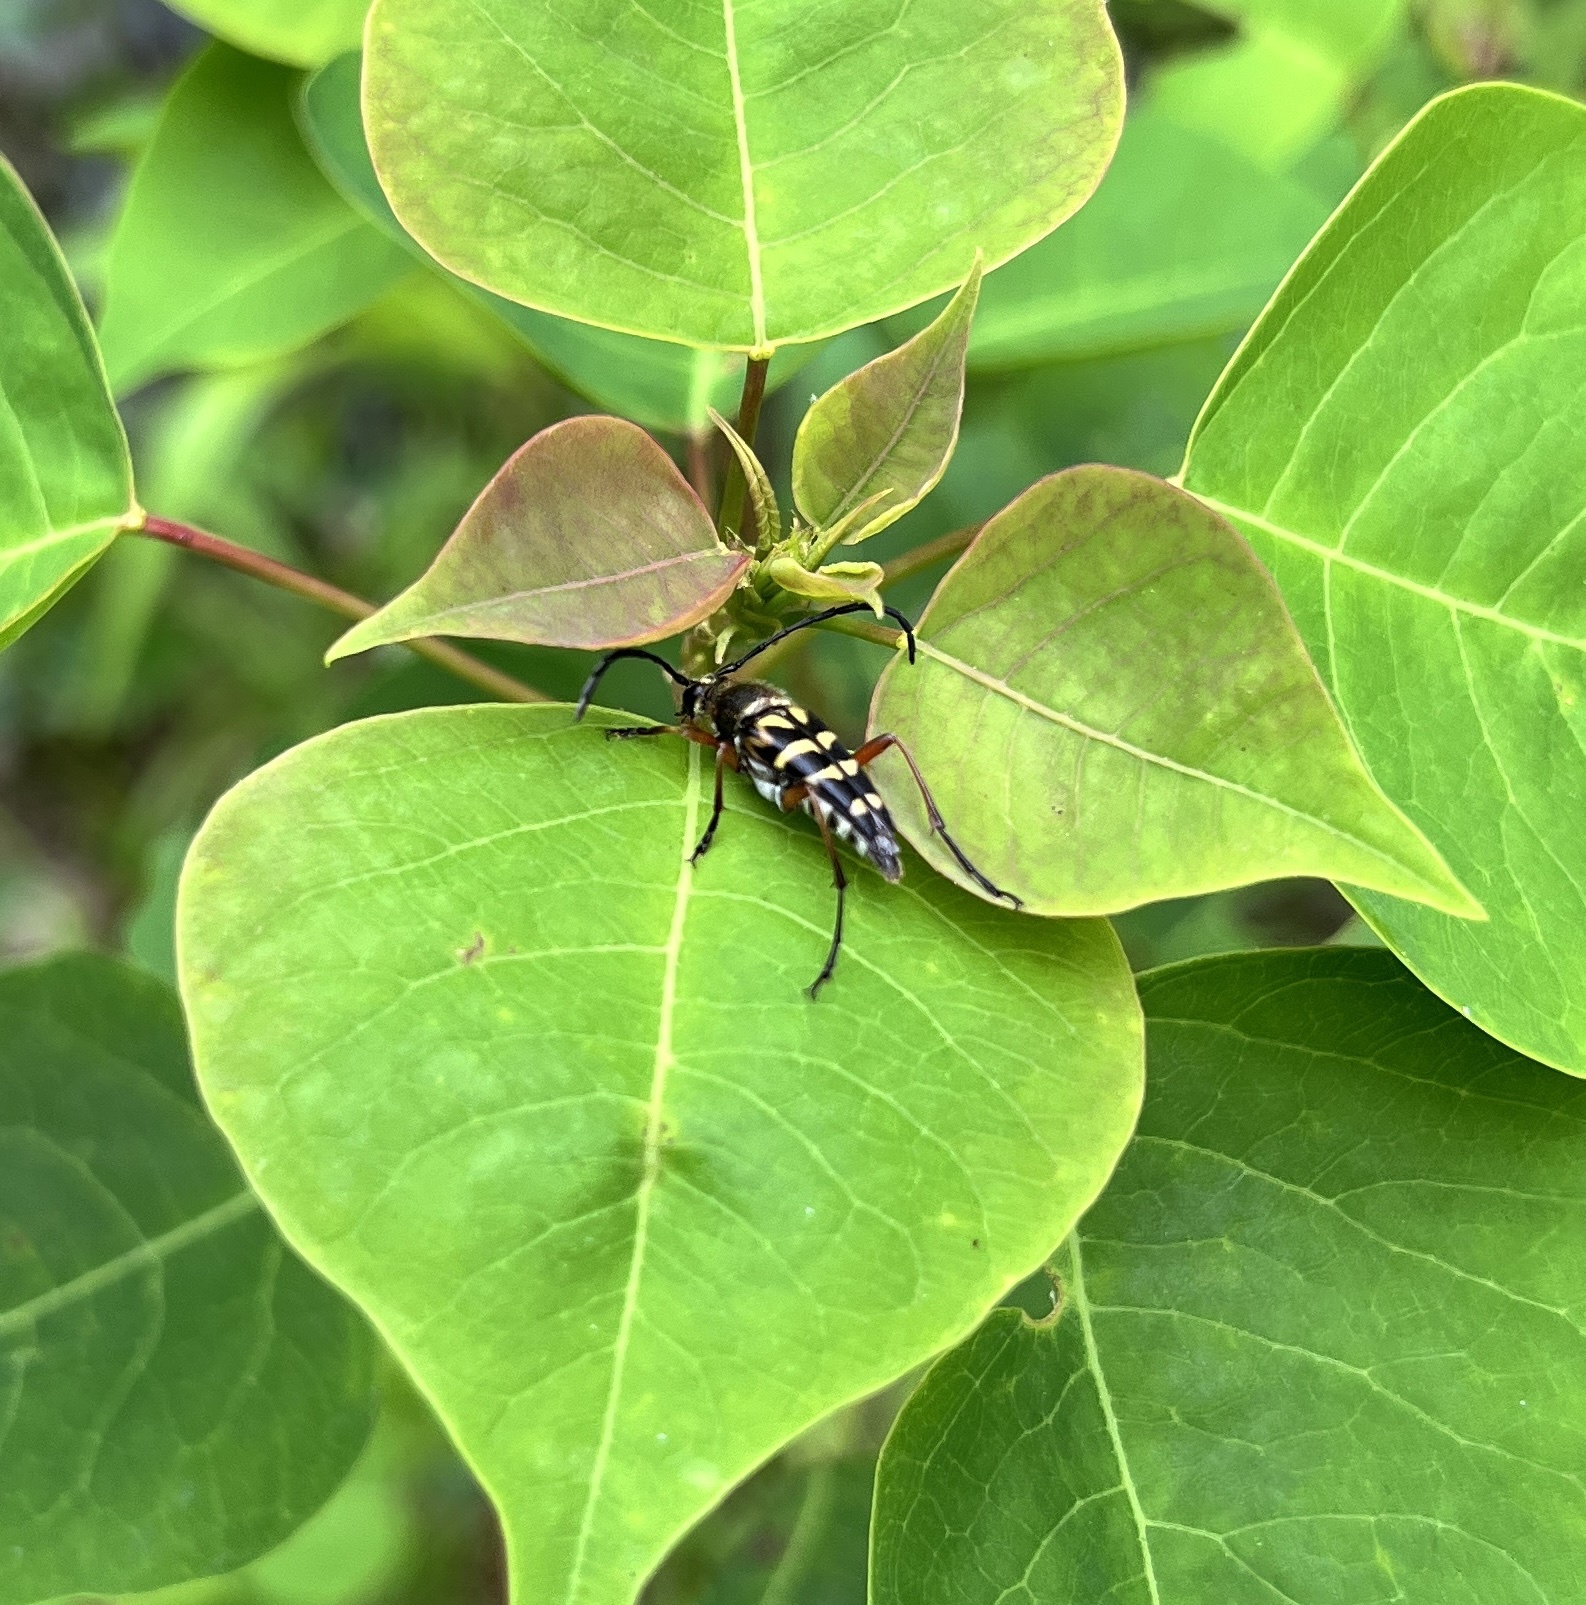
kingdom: Animalia
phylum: Arthropoda
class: Insecta
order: Coleoptera
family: Cerambycidae
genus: Typocerus
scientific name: Typocerus zebra
